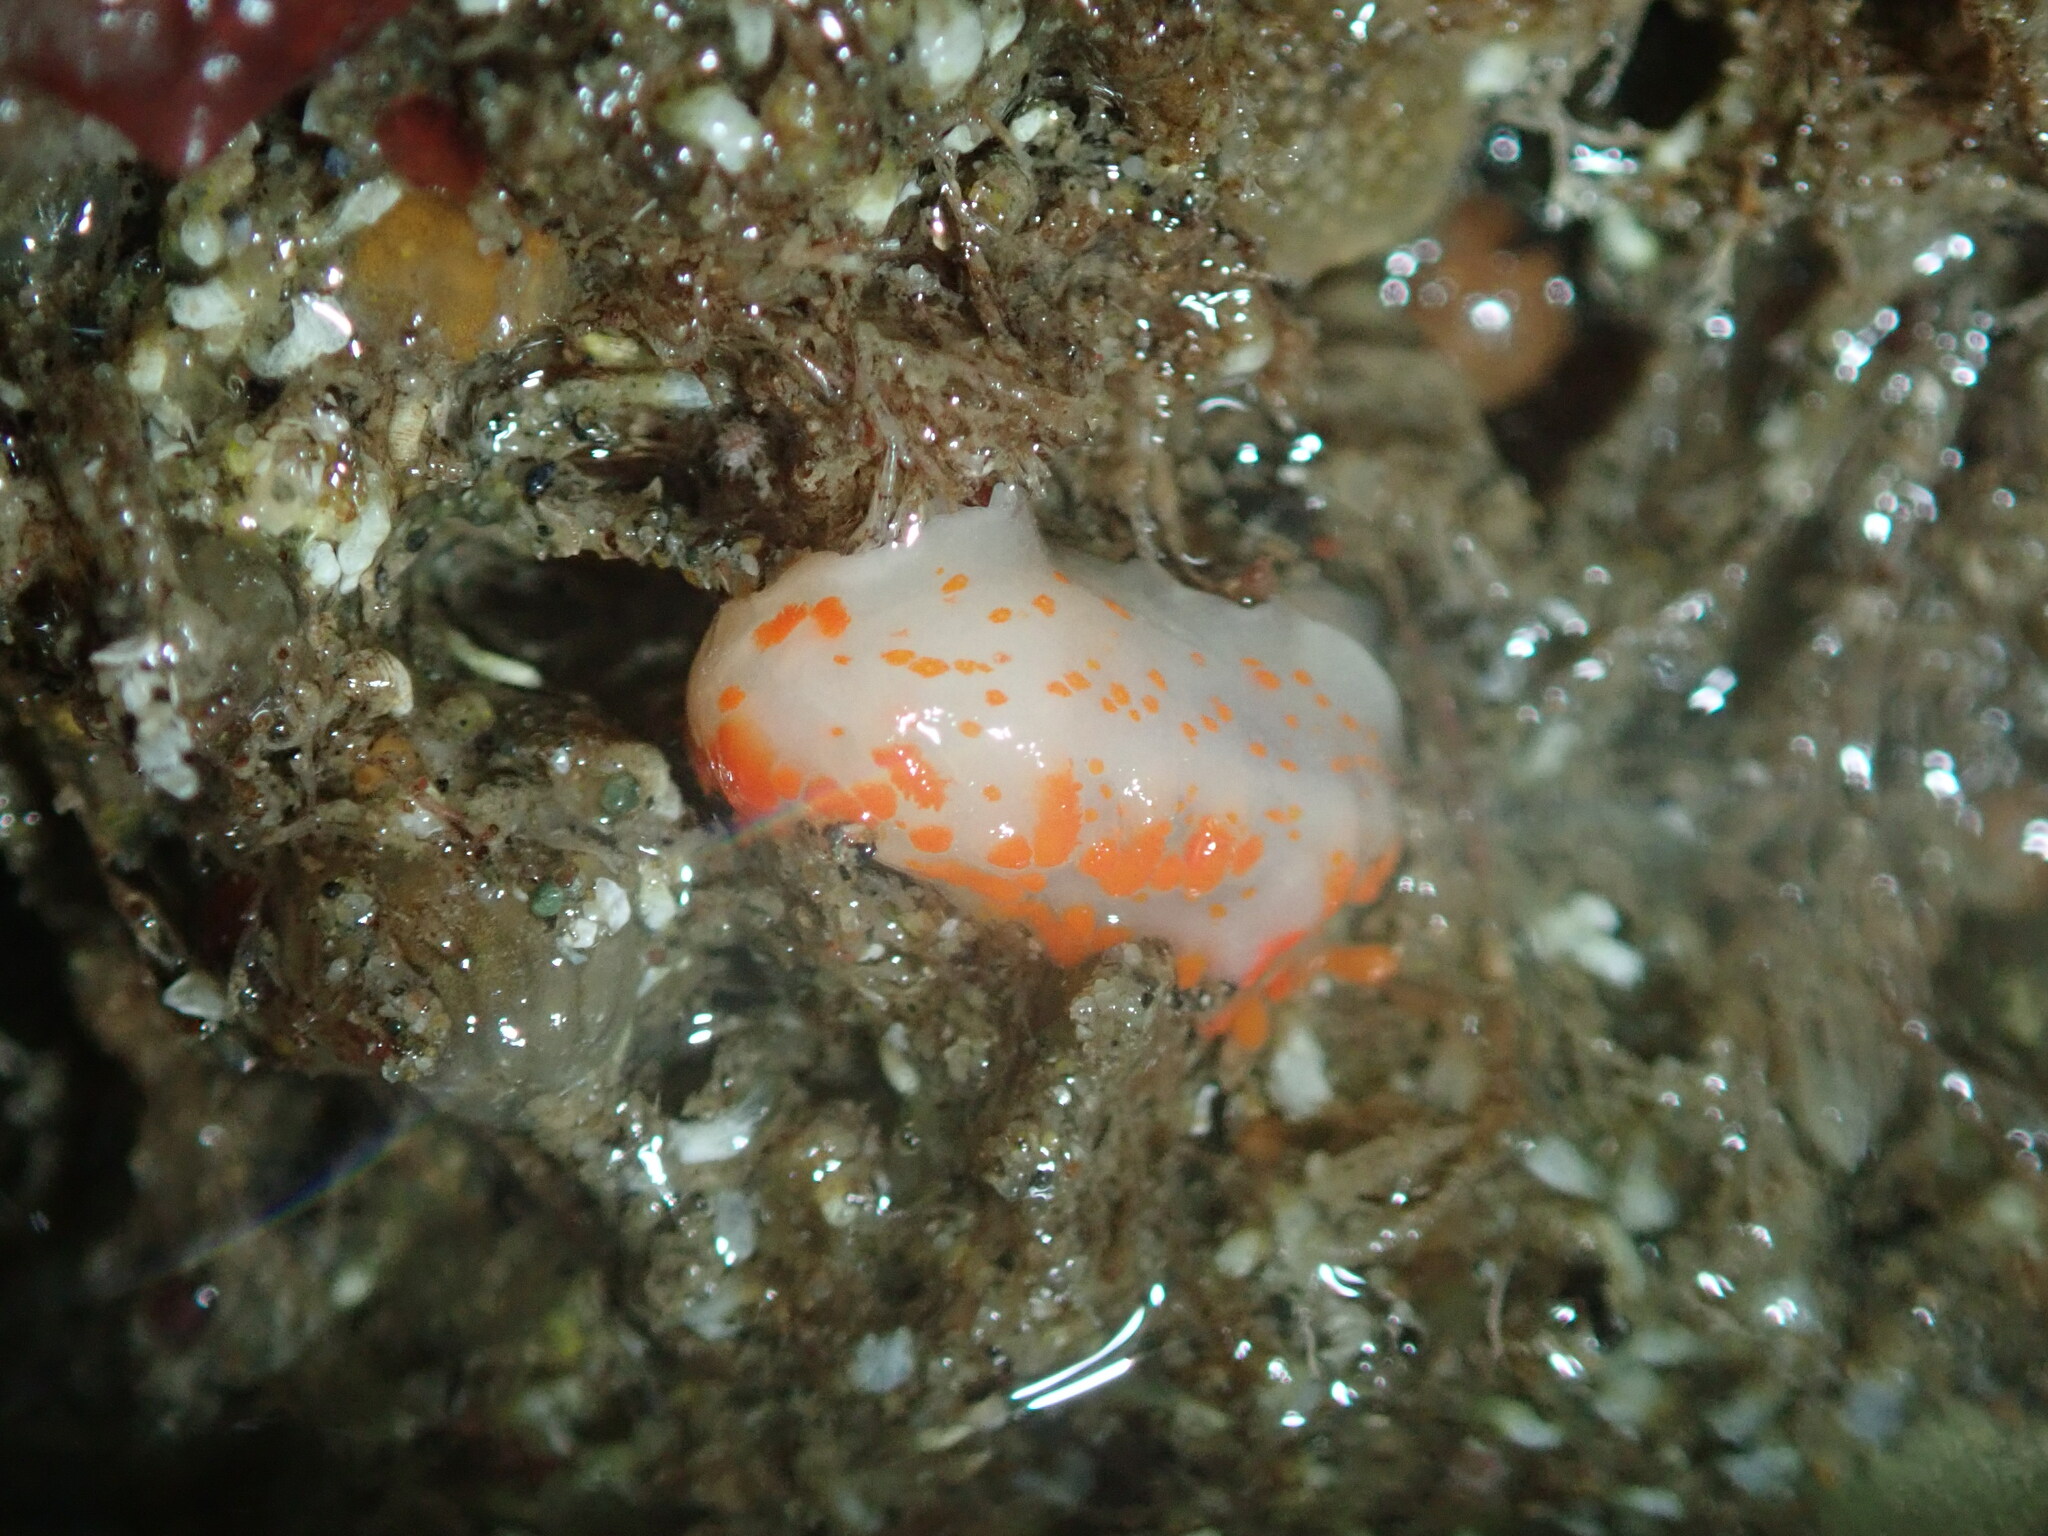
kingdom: Animalia
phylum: Mollusca
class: Gastropoda
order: Nudibranchia
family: Polyceridae
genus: Triopha
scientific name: Triopha catalinae
